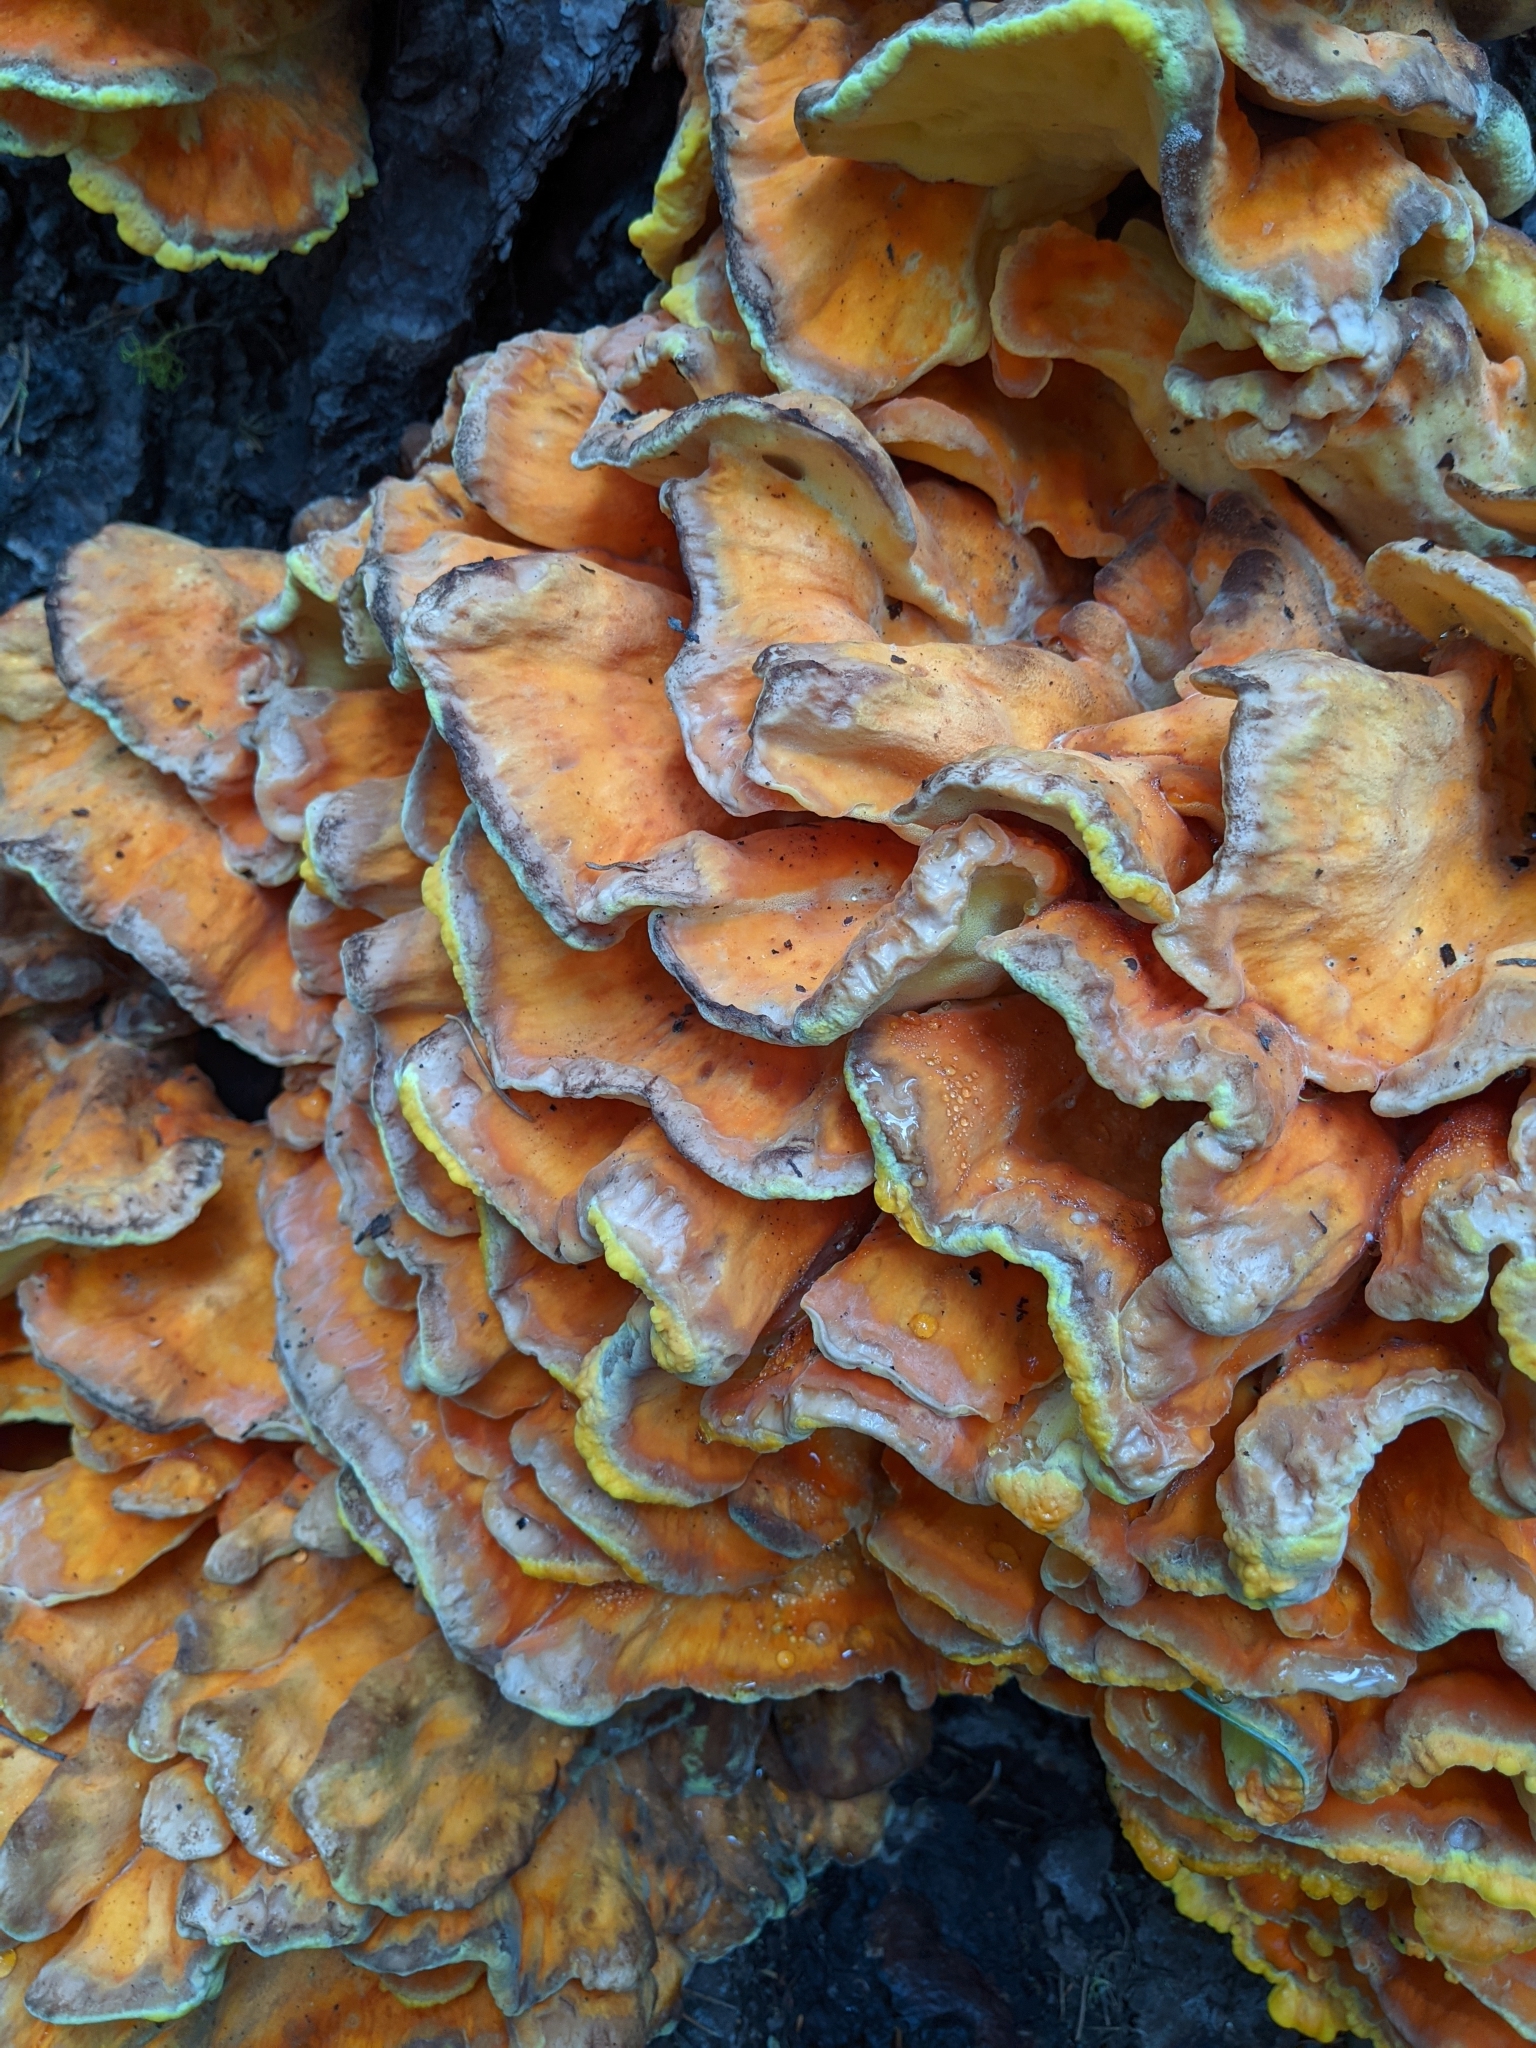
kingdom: Fungi
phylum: Basidiomycota
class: Agaricomycetes
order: Polyporales
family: Laetiporaceae
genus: Laetiporus
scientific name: Laetiporus conifericola
